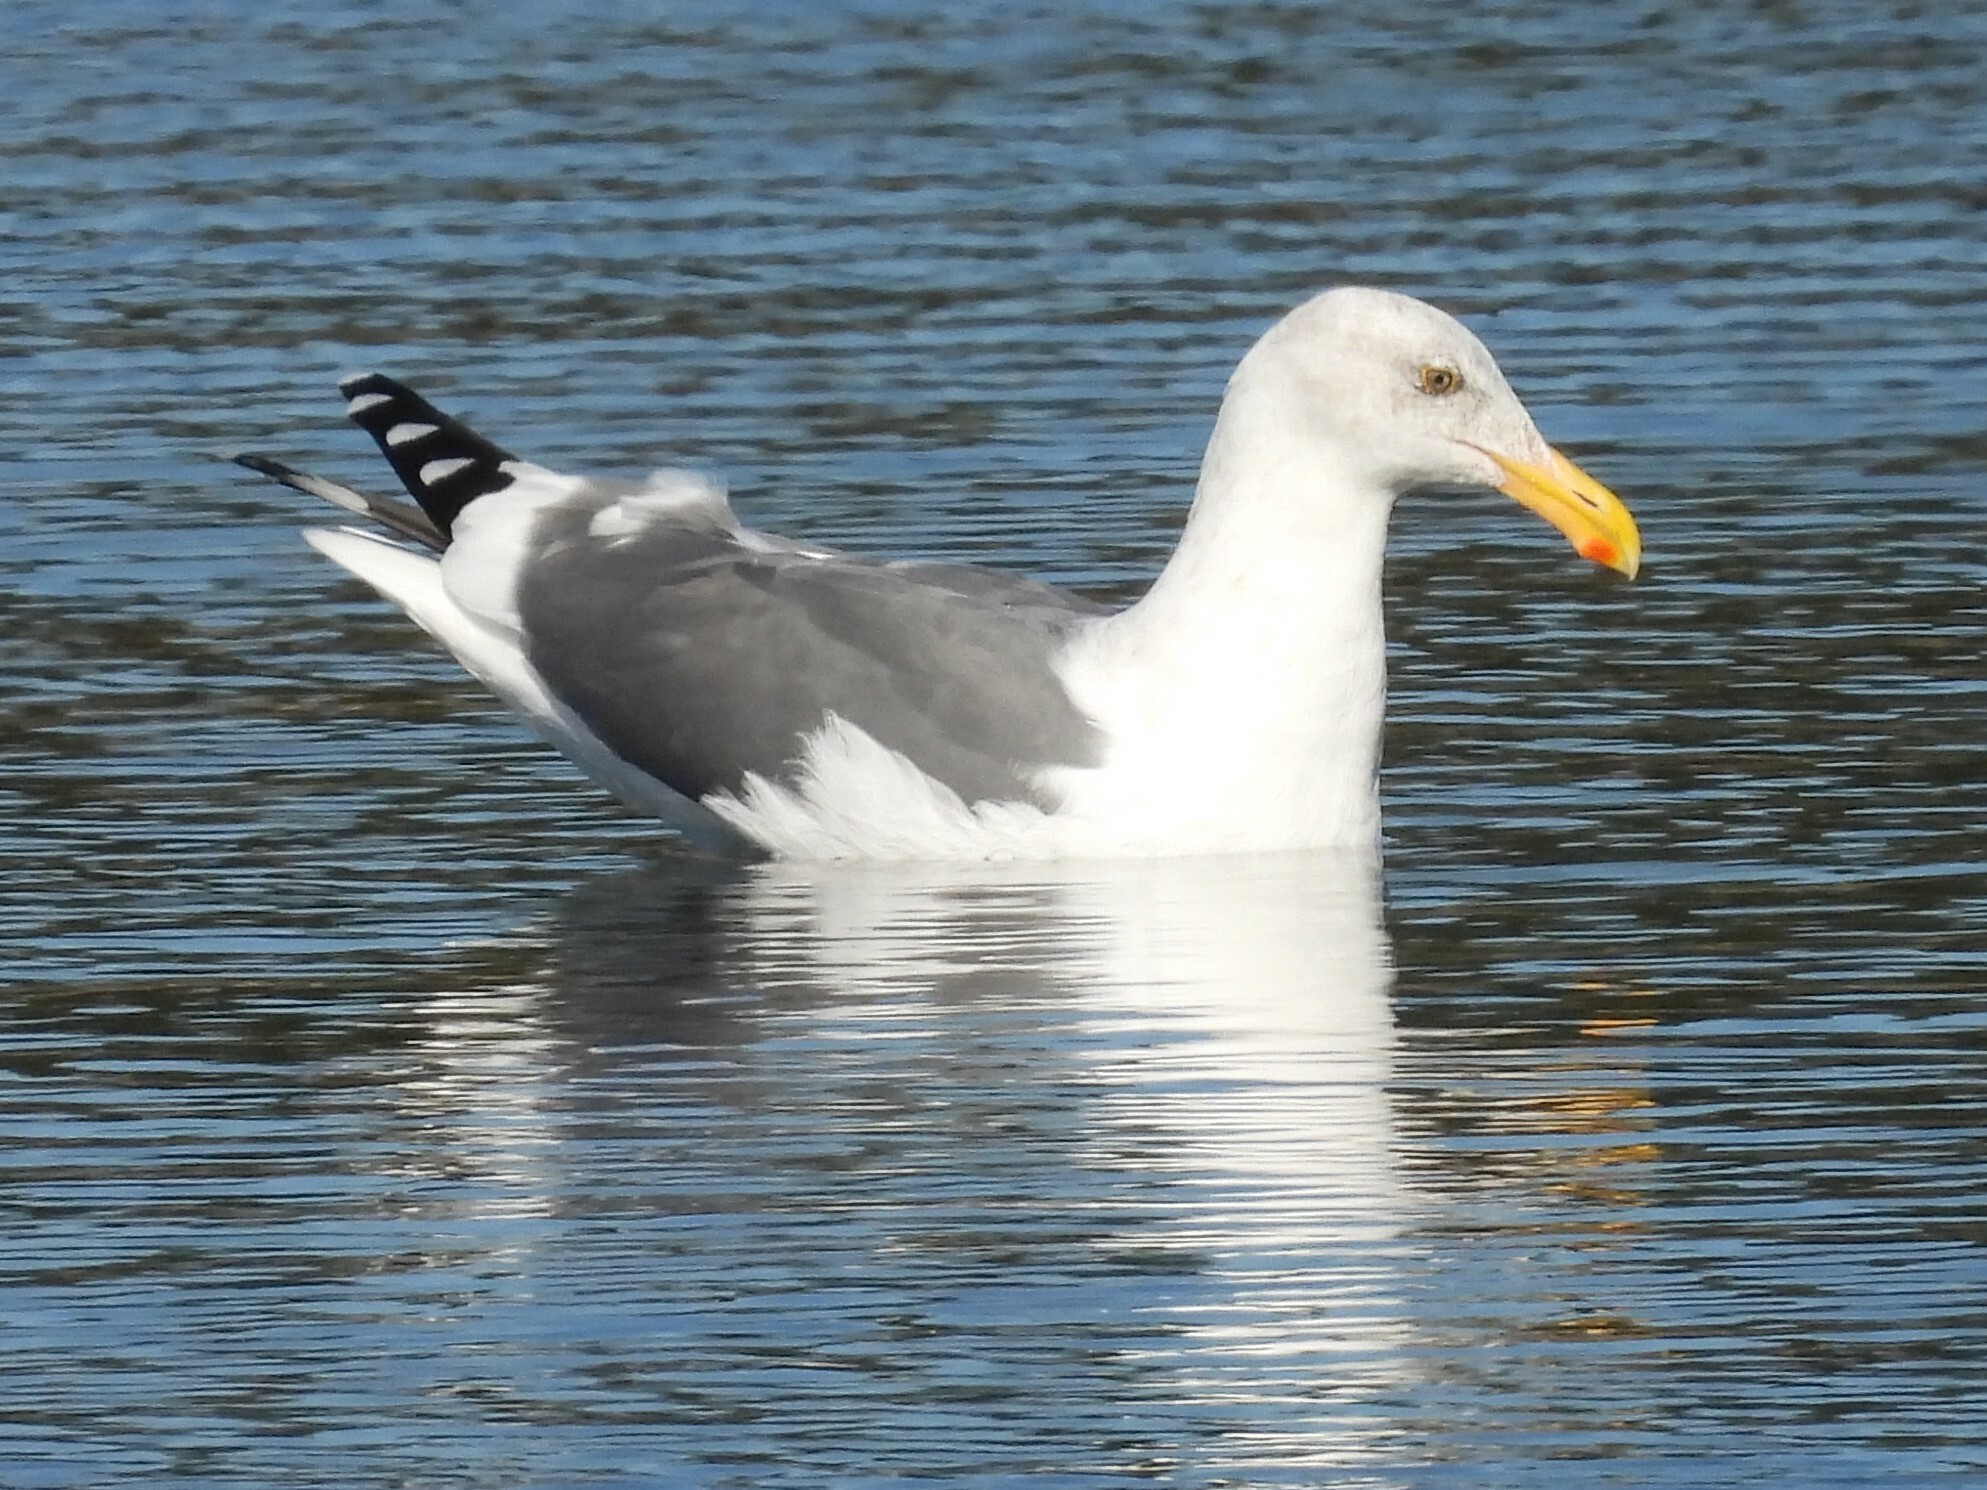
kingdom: Animalia
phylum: Chordata
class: Aves
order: Charadriiformes
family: Laridae
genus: Larus
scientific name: Larus occidentalis
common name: Western gull
